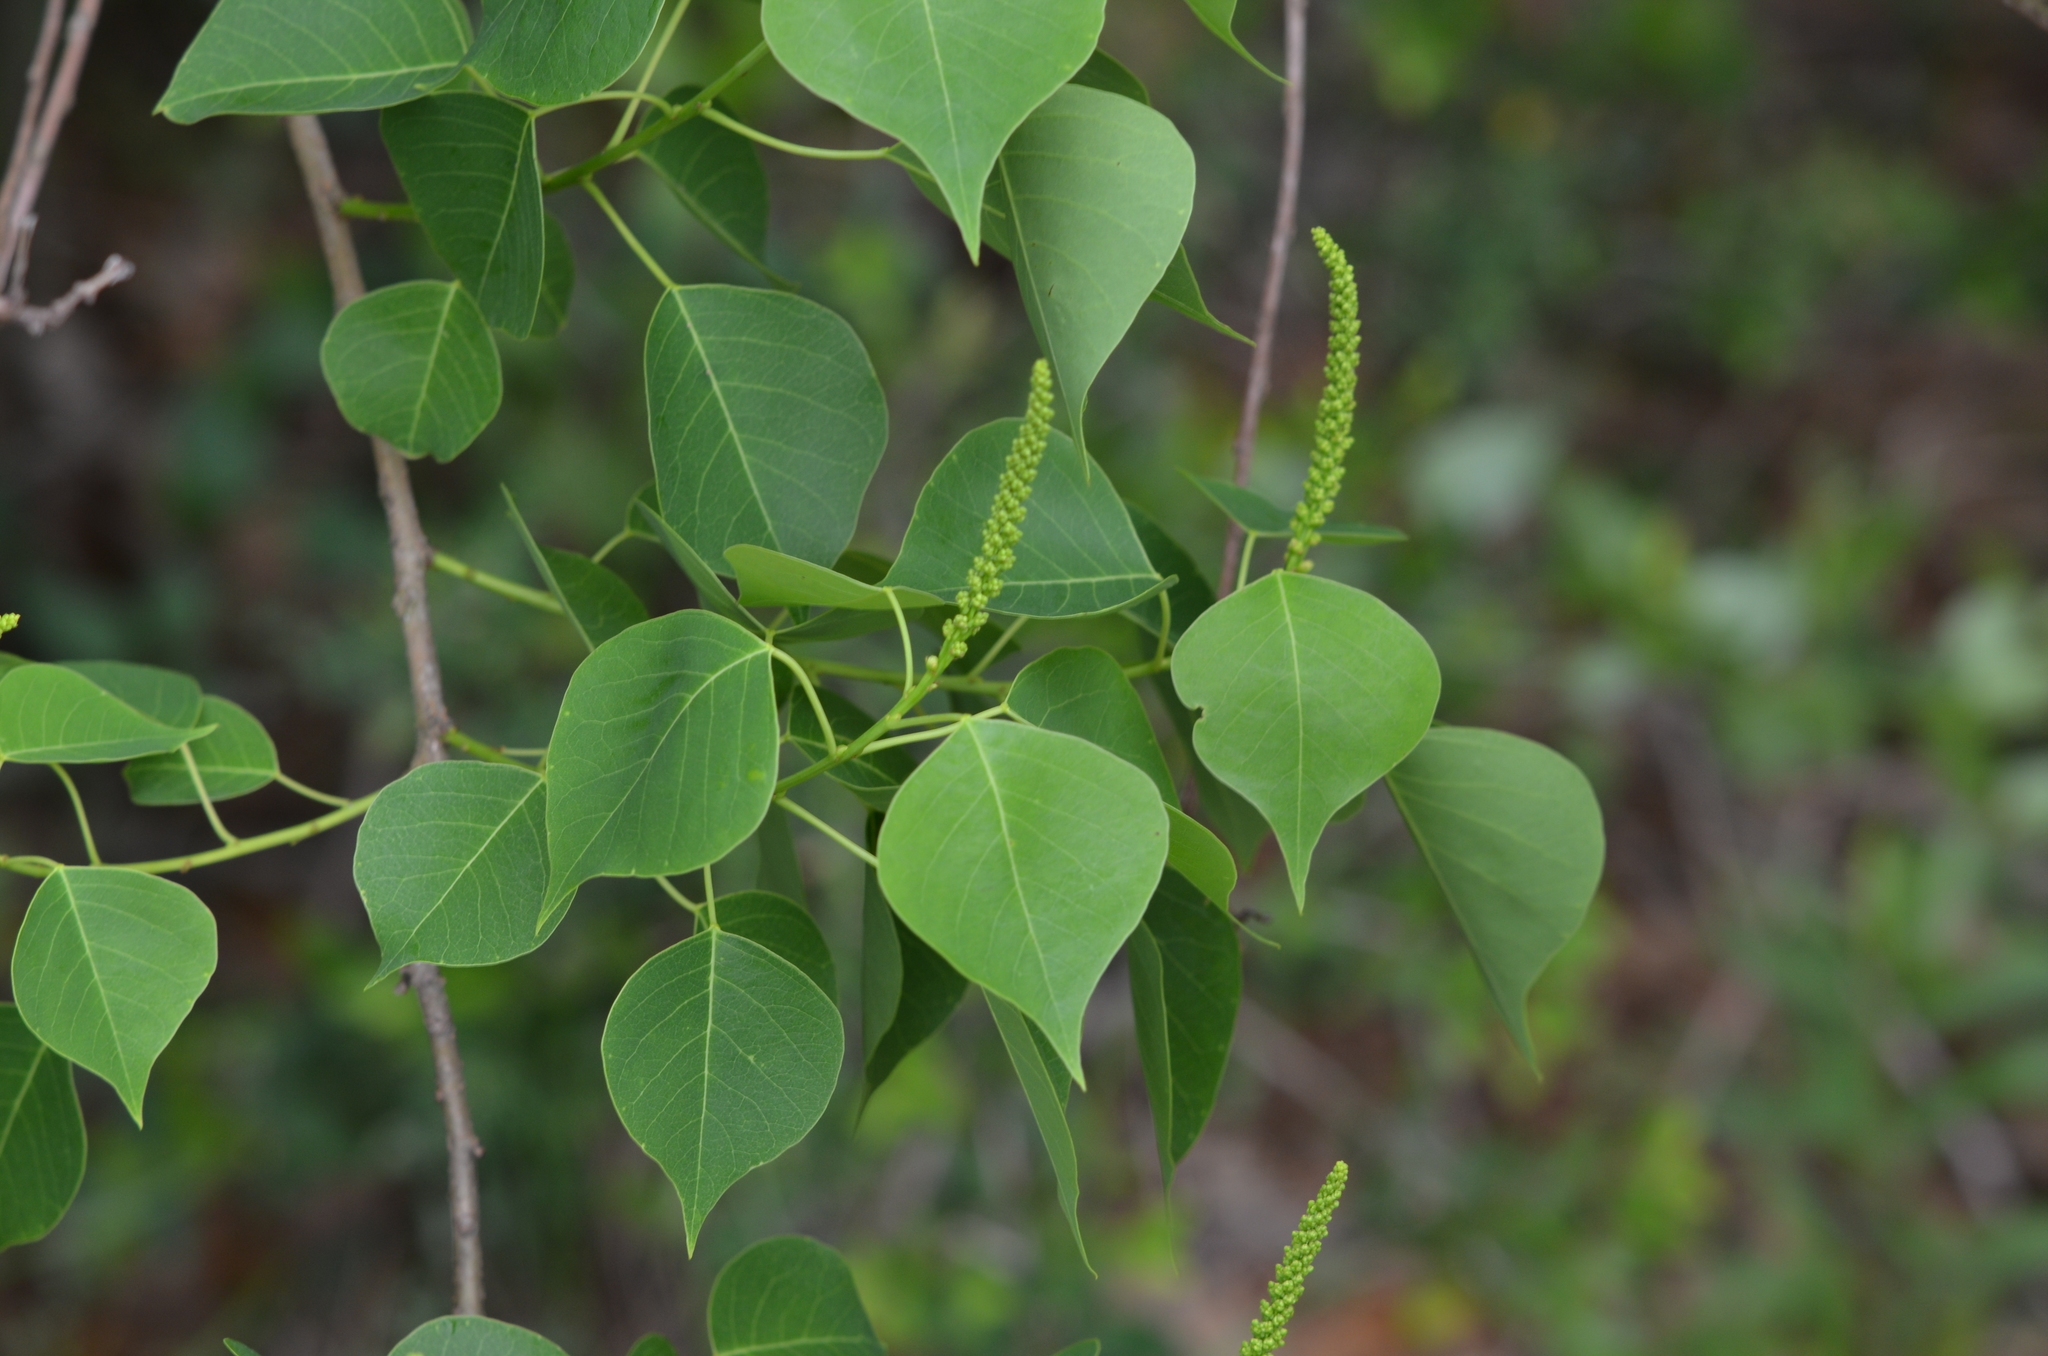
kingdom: Plantae
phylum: Tracheophyta
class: Magnoliopsida
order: Malpighiales
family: Euphorbiaceae
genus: Triadica
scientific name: Triadica sebifera
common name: Chinese tallow
